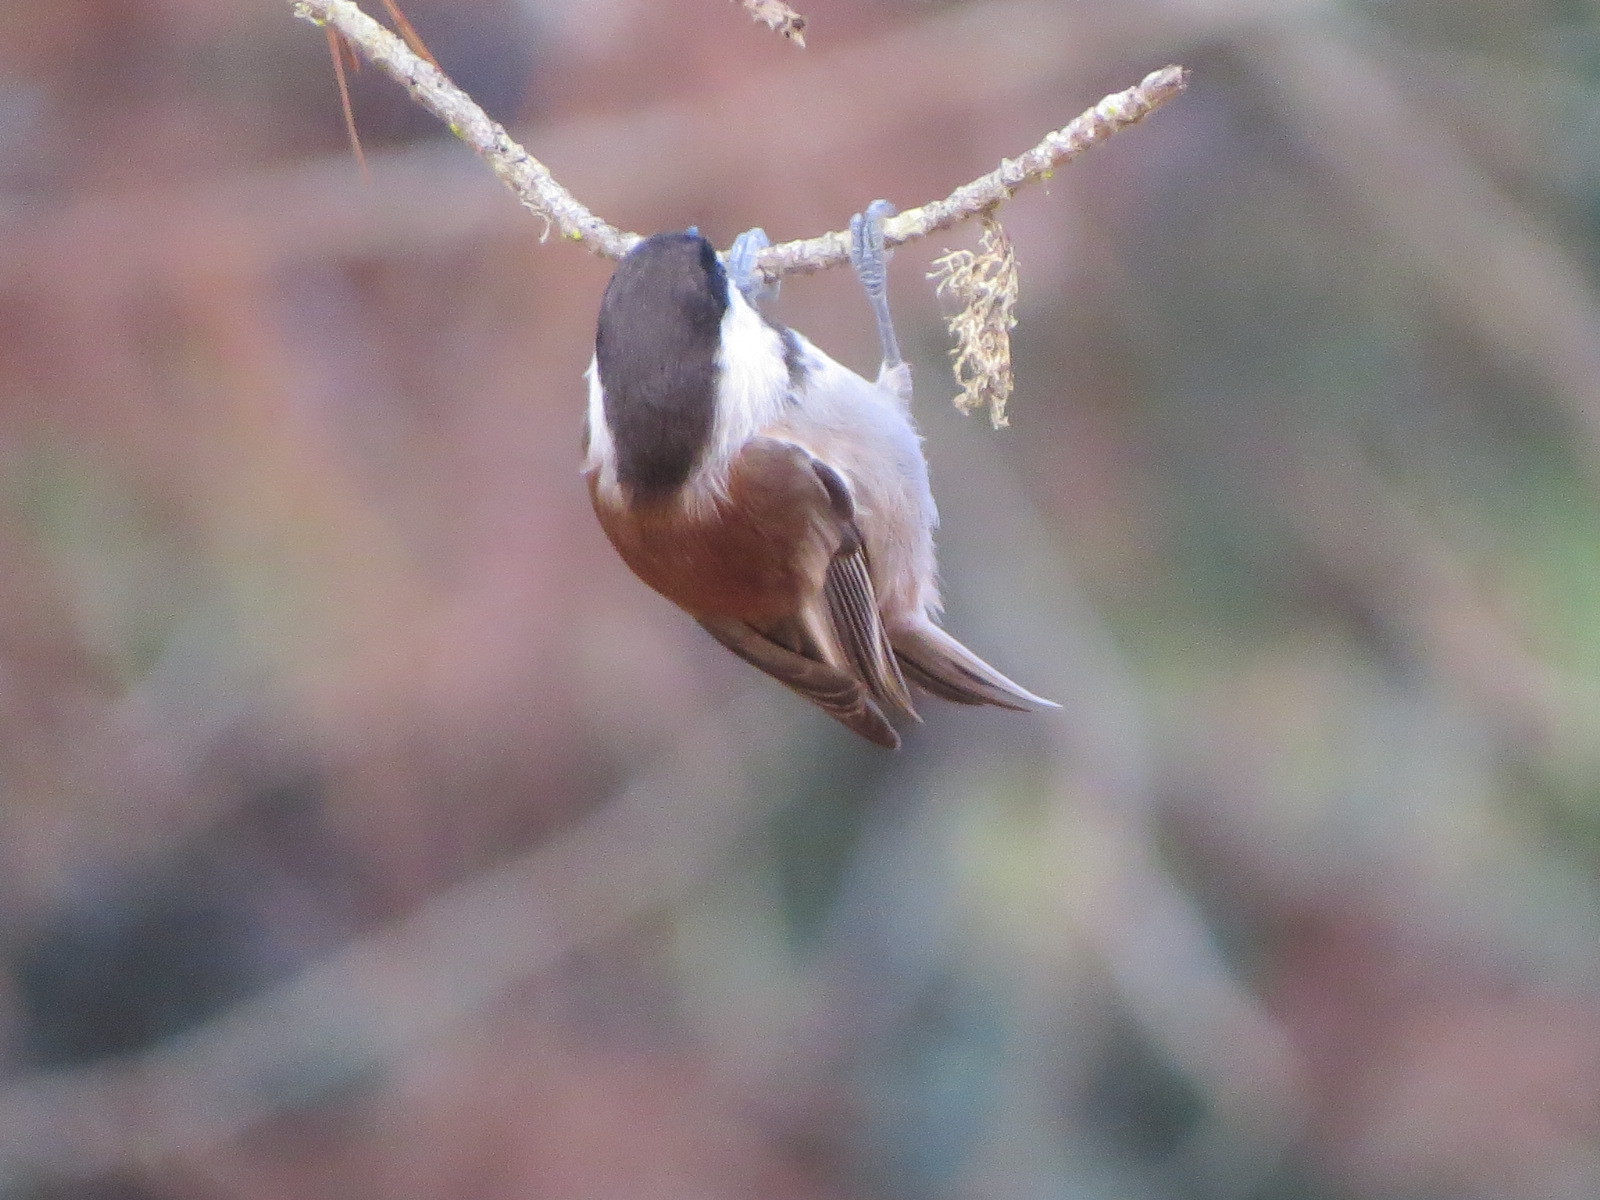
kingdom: Animalia
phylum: Chordata
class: Aves
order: Passeriformes
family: Paridae
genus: Poecile
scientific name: Poecile rufescens
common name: Chestnut-backed chickadee
